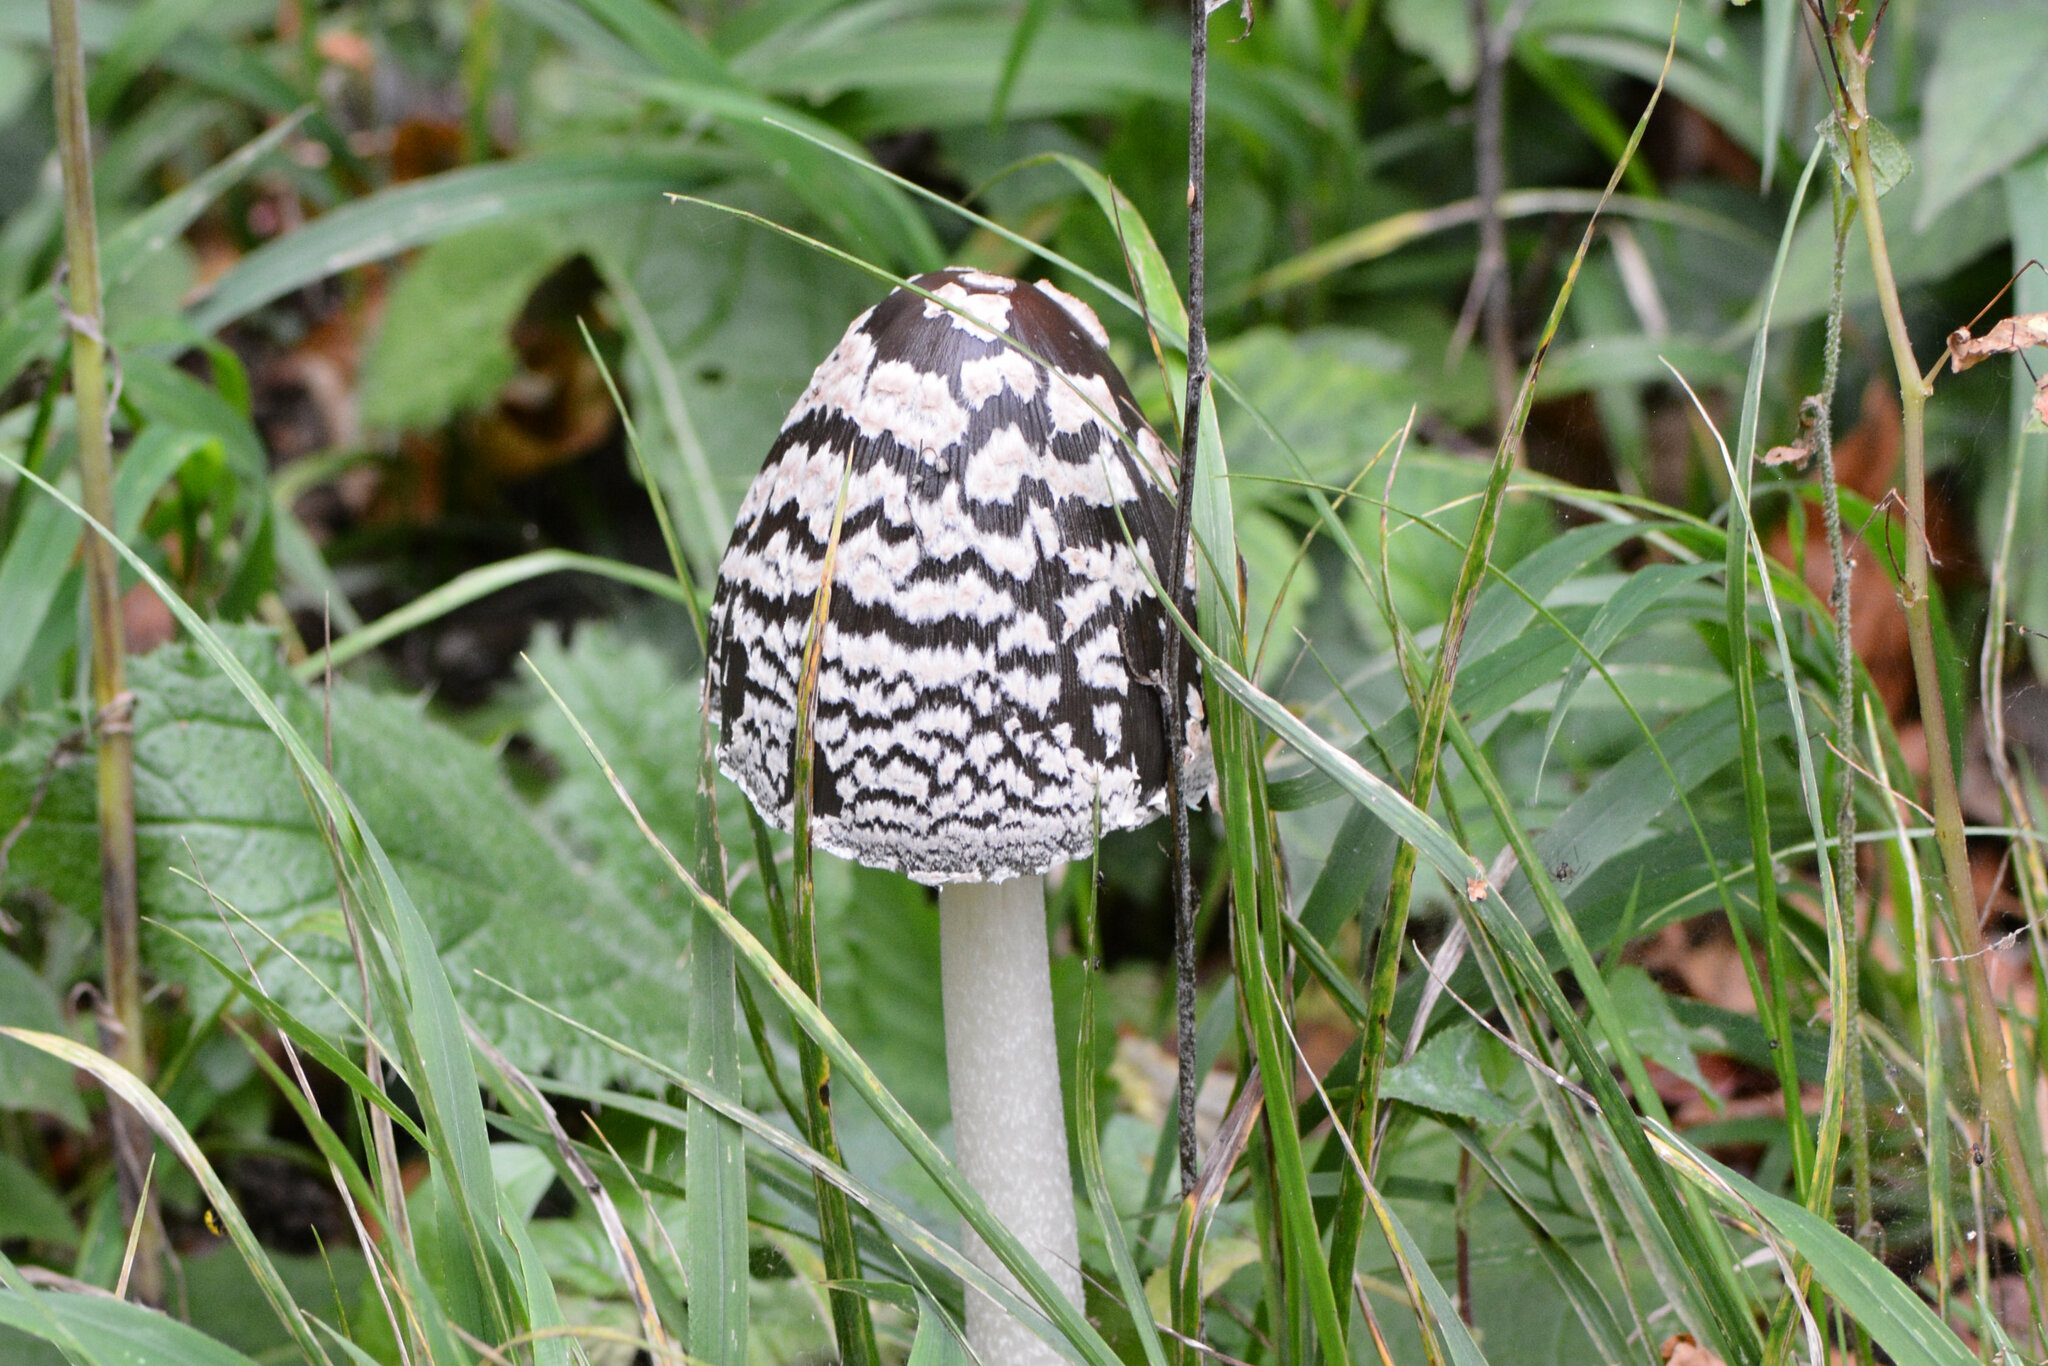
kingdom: Fungi
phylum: Basidiomycota
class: Agaricomycetes
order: Agaricales
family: Psathyrellaceae
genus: Coprinopsis
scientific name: Coprinopsis picacea
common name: Magpie inkcap
